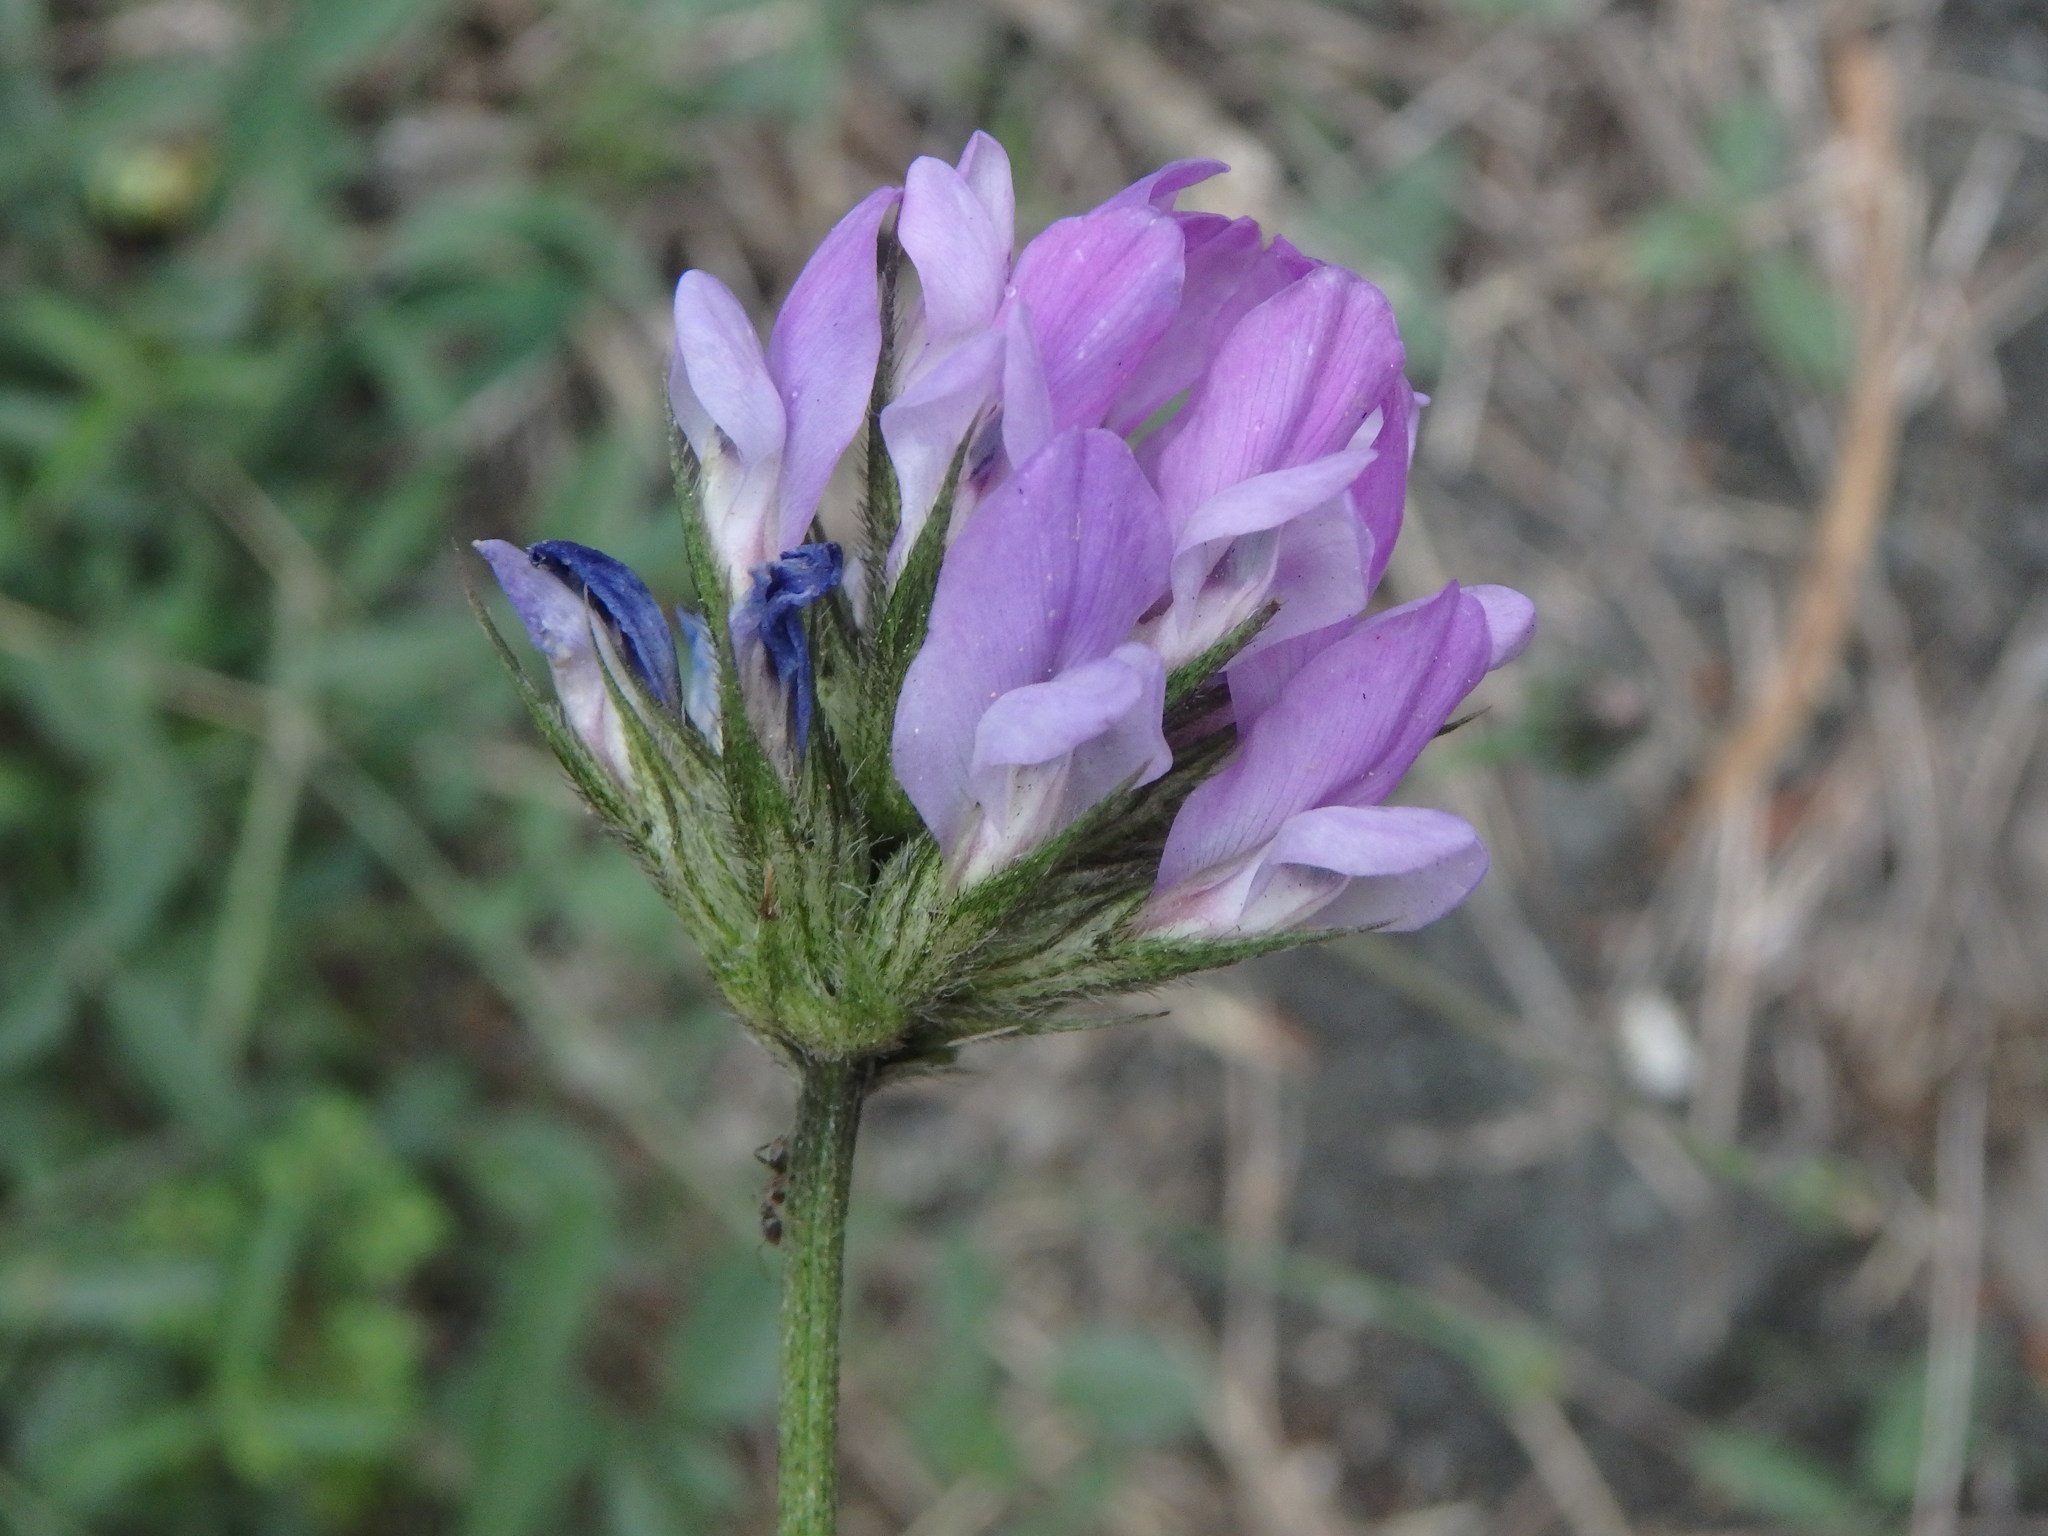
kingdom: Plantae
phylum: Tracheophyta
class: Magnoliopsida
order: Fabales
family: Fabaceae
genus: Bituminaria
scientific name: Bituminaria bituminosa
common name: Arabian pea
